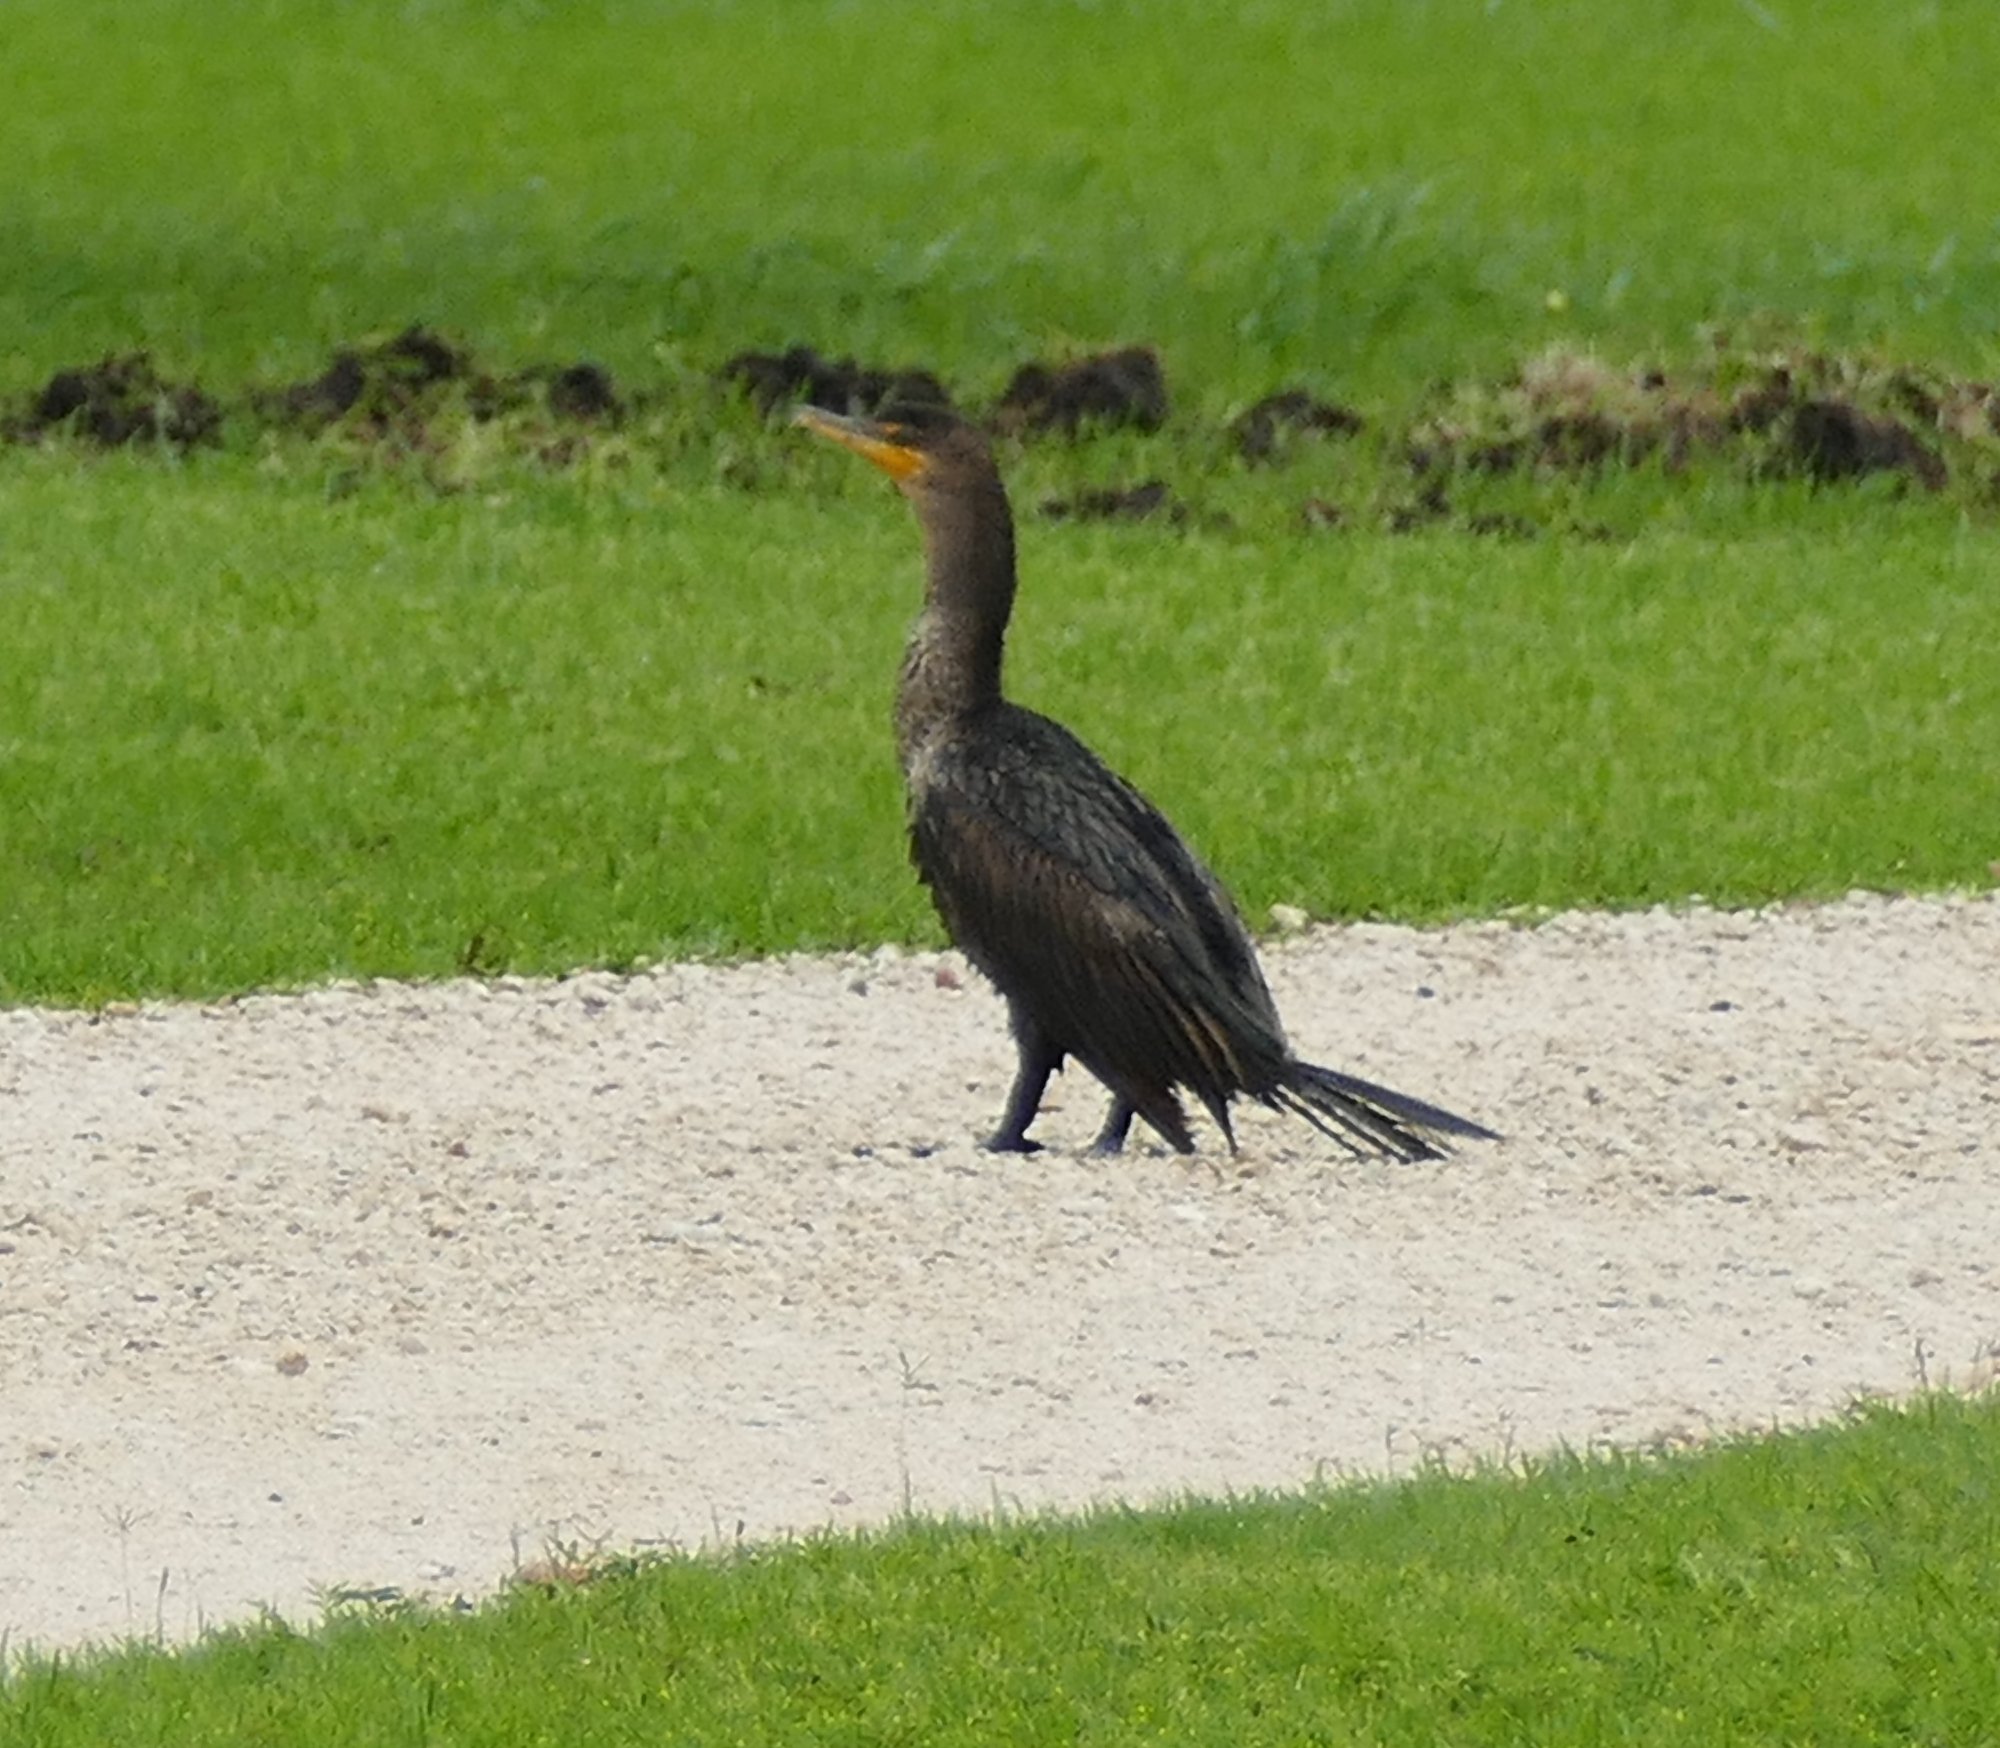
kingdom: Animalia
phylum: Chordata
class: Aves
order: Suliformes
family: Phalacrocoracidae
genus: Phalacrocorax
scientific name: Phalacrocorax auritus
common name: Double-crested cormorant
